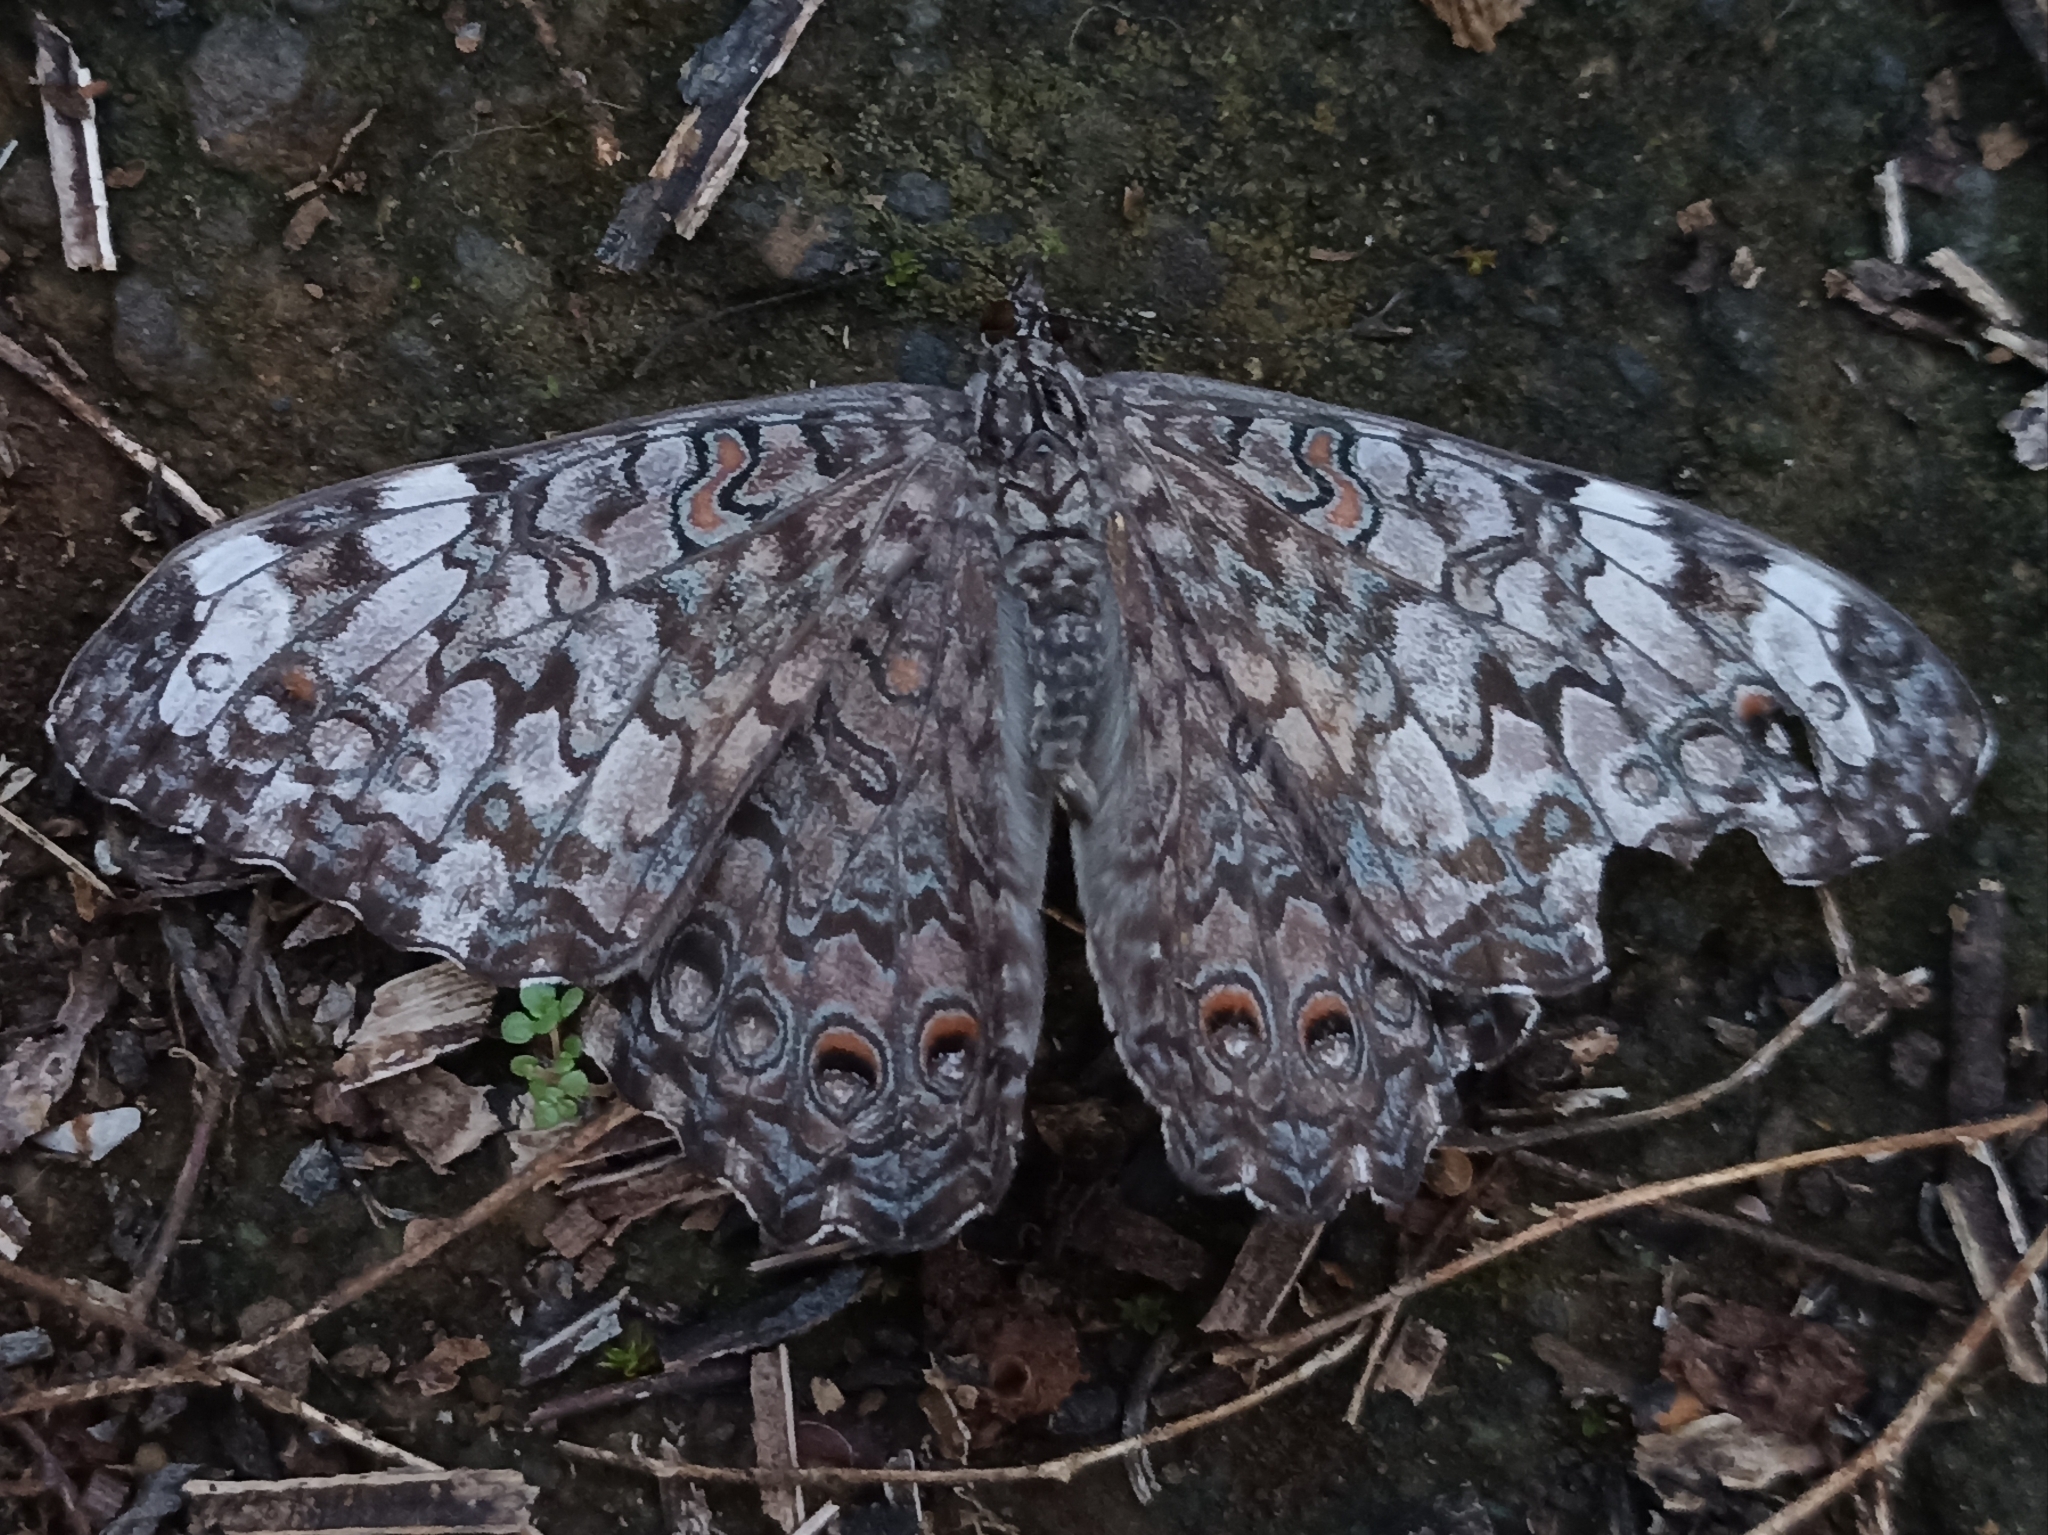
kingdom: Animalia
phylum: Arthropoda
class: Insecta
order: Lepidoptera
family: Nymphalidae
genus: Hamadryas
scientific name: Hamadryas februa
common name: Gray cracker
